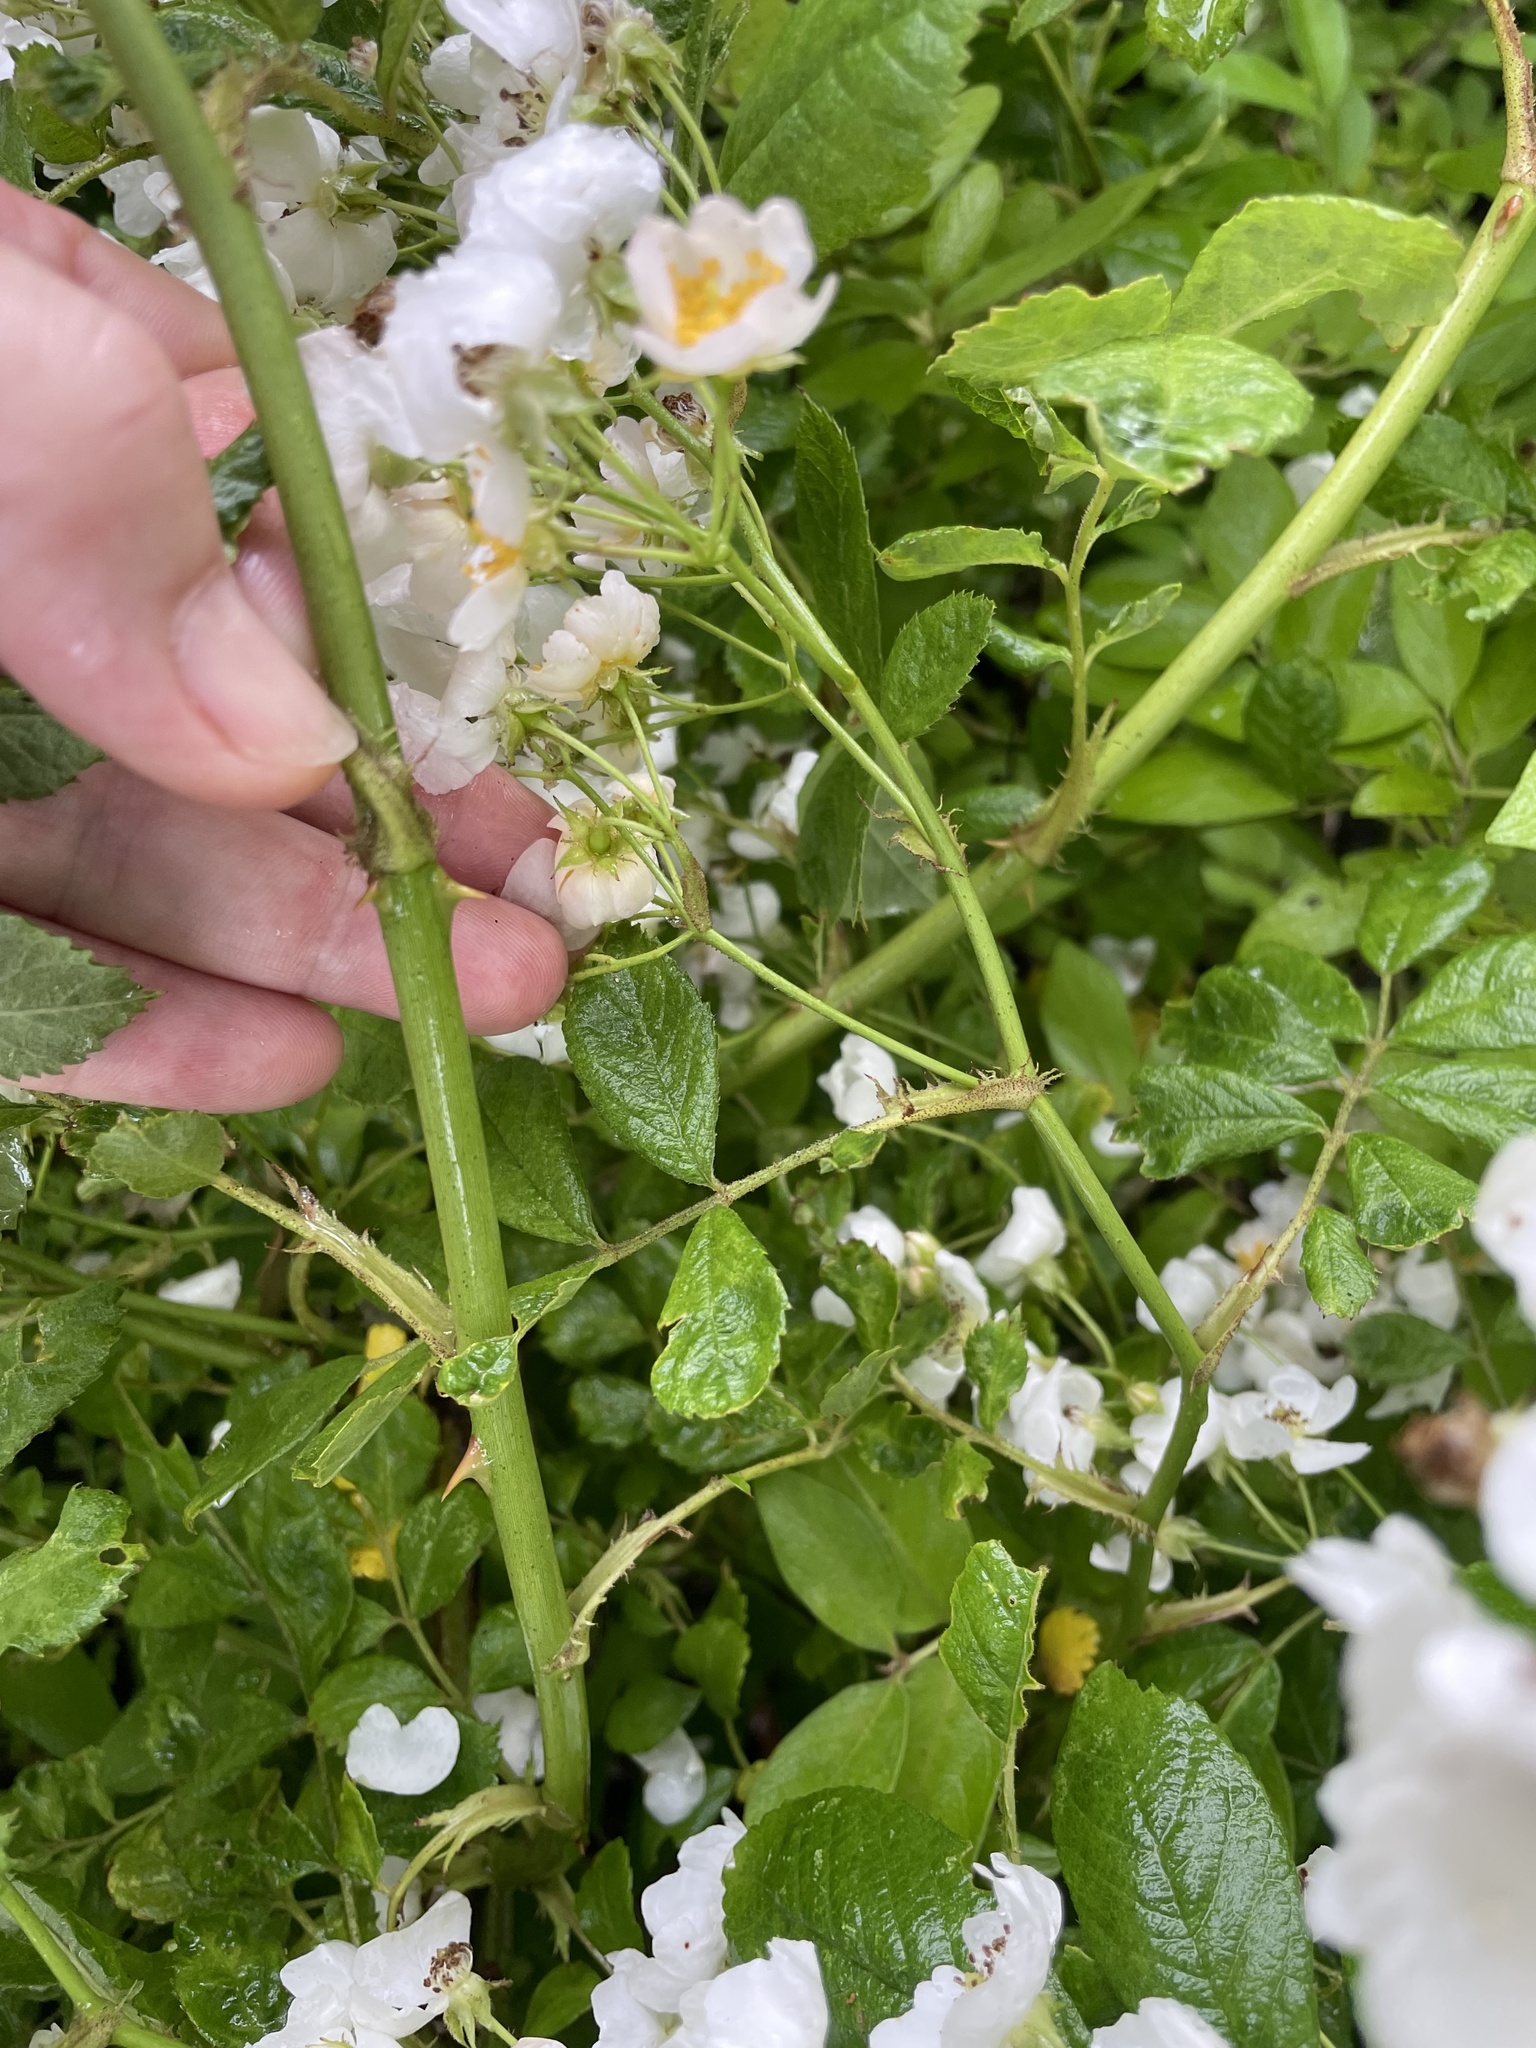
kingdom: Plantae
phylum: Tracheophyta
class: Magnoliopsida
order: Rosales
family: Rosaceae
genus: Rosa
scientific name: Rosa multiflora
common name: Multiflora rose
